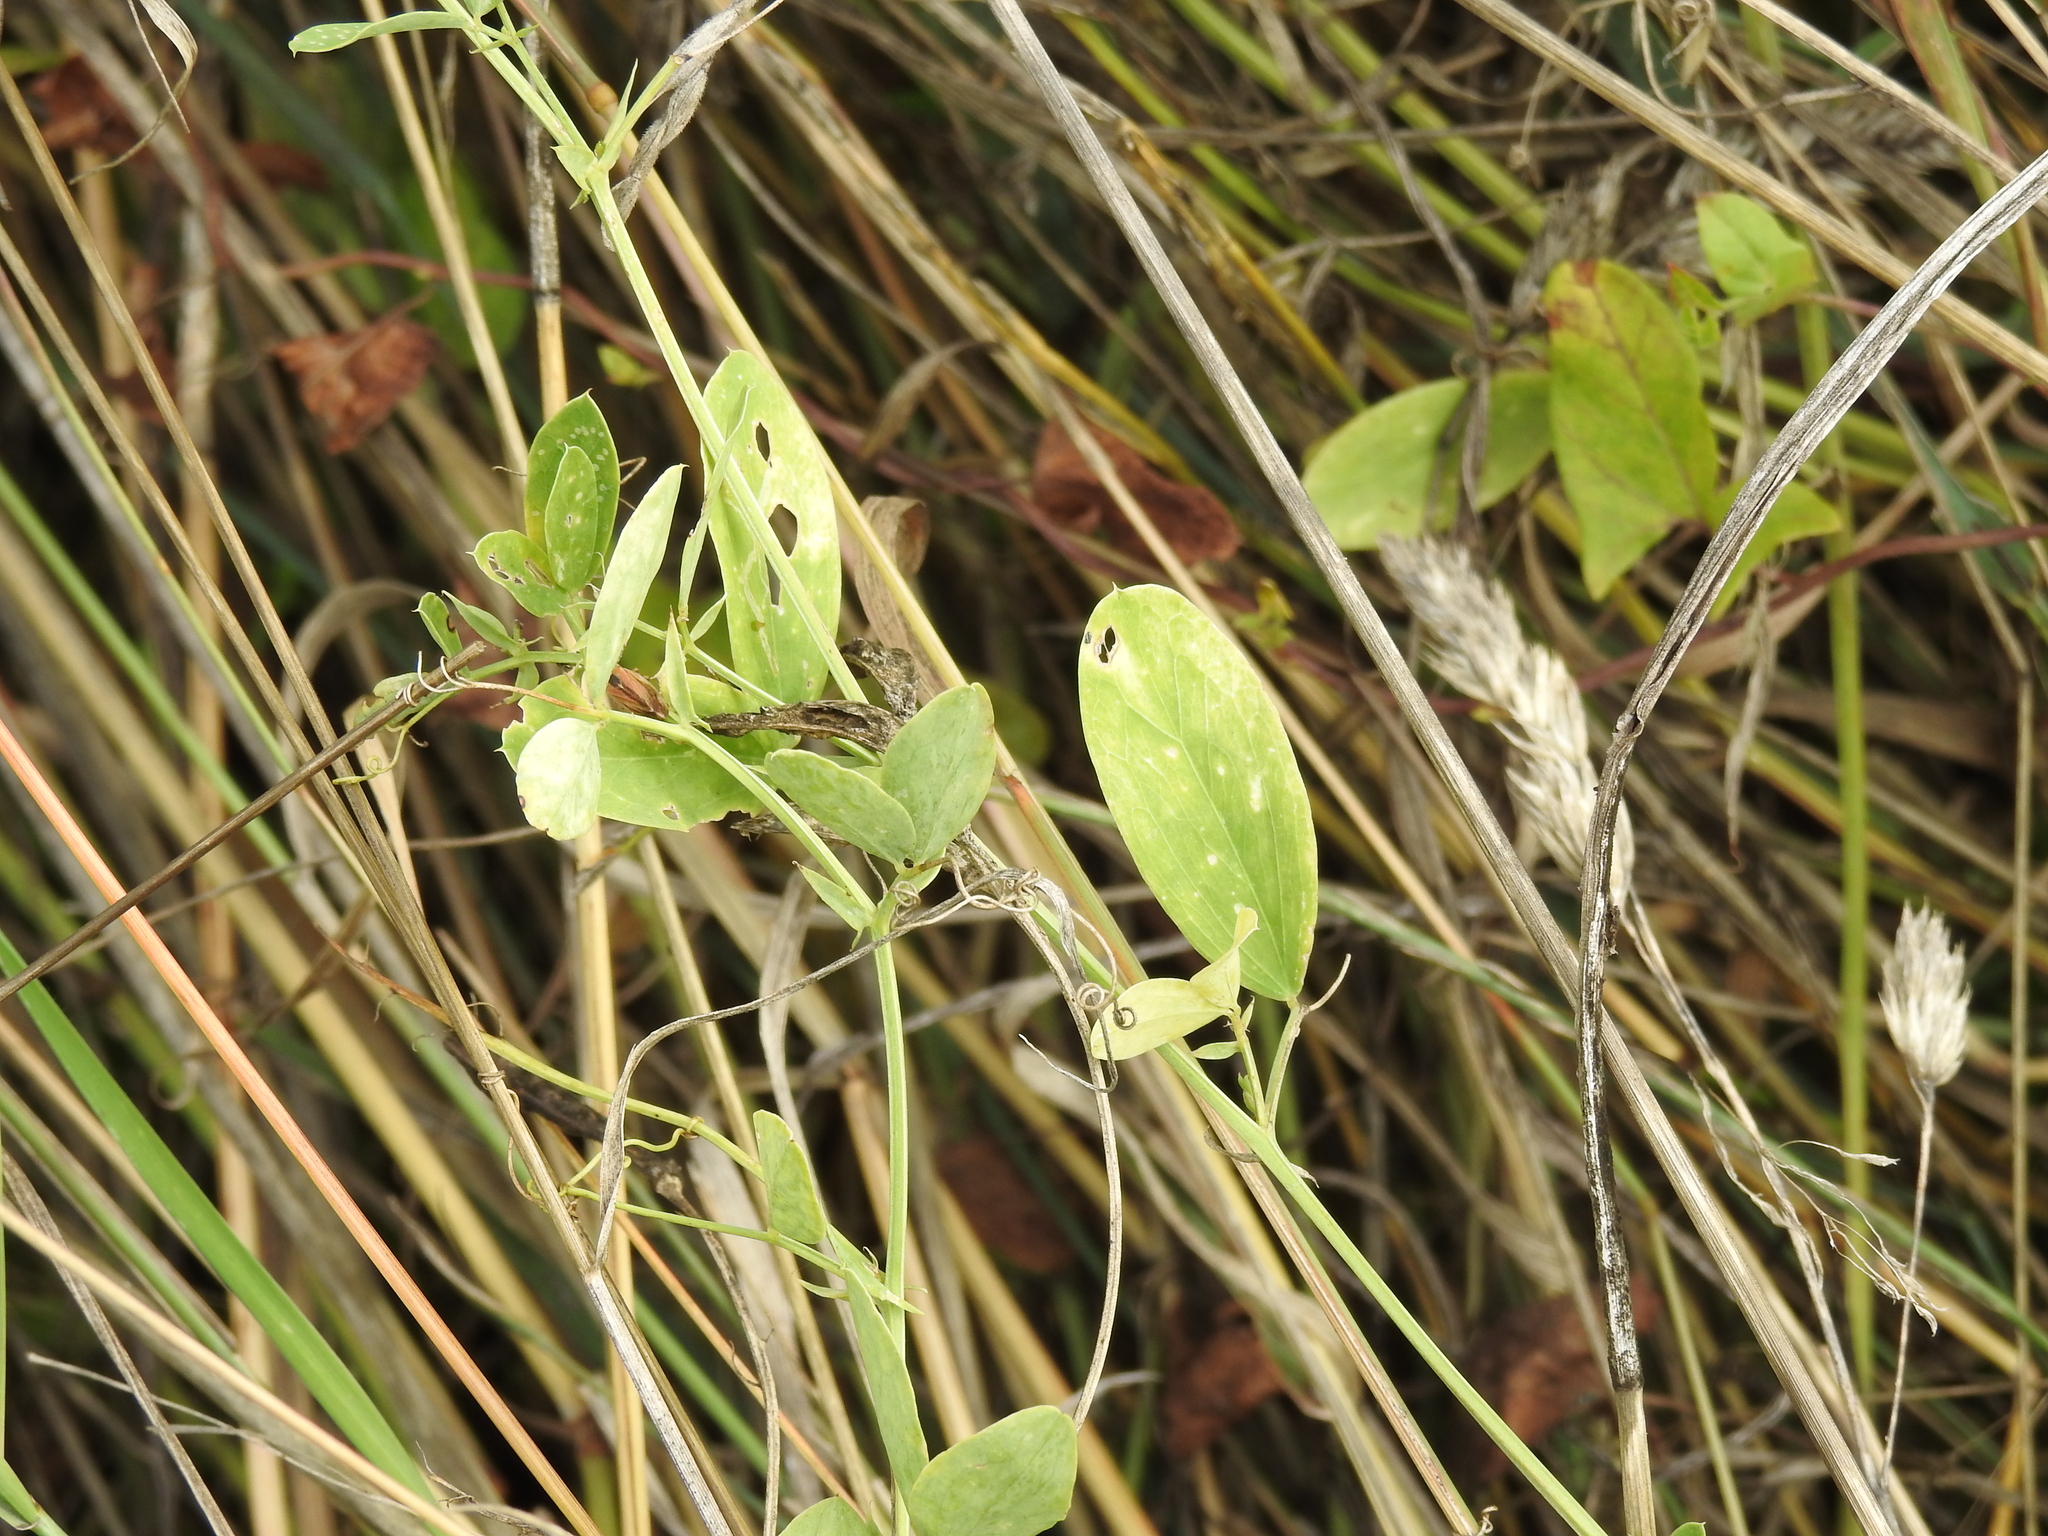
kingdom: Plantae
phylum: Tracheophyta
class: Magnoliopsida
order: Fabales
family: Fabaceae
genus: Lathyrus
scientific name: Lathyrus tuberosus
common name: Tuberous pea
